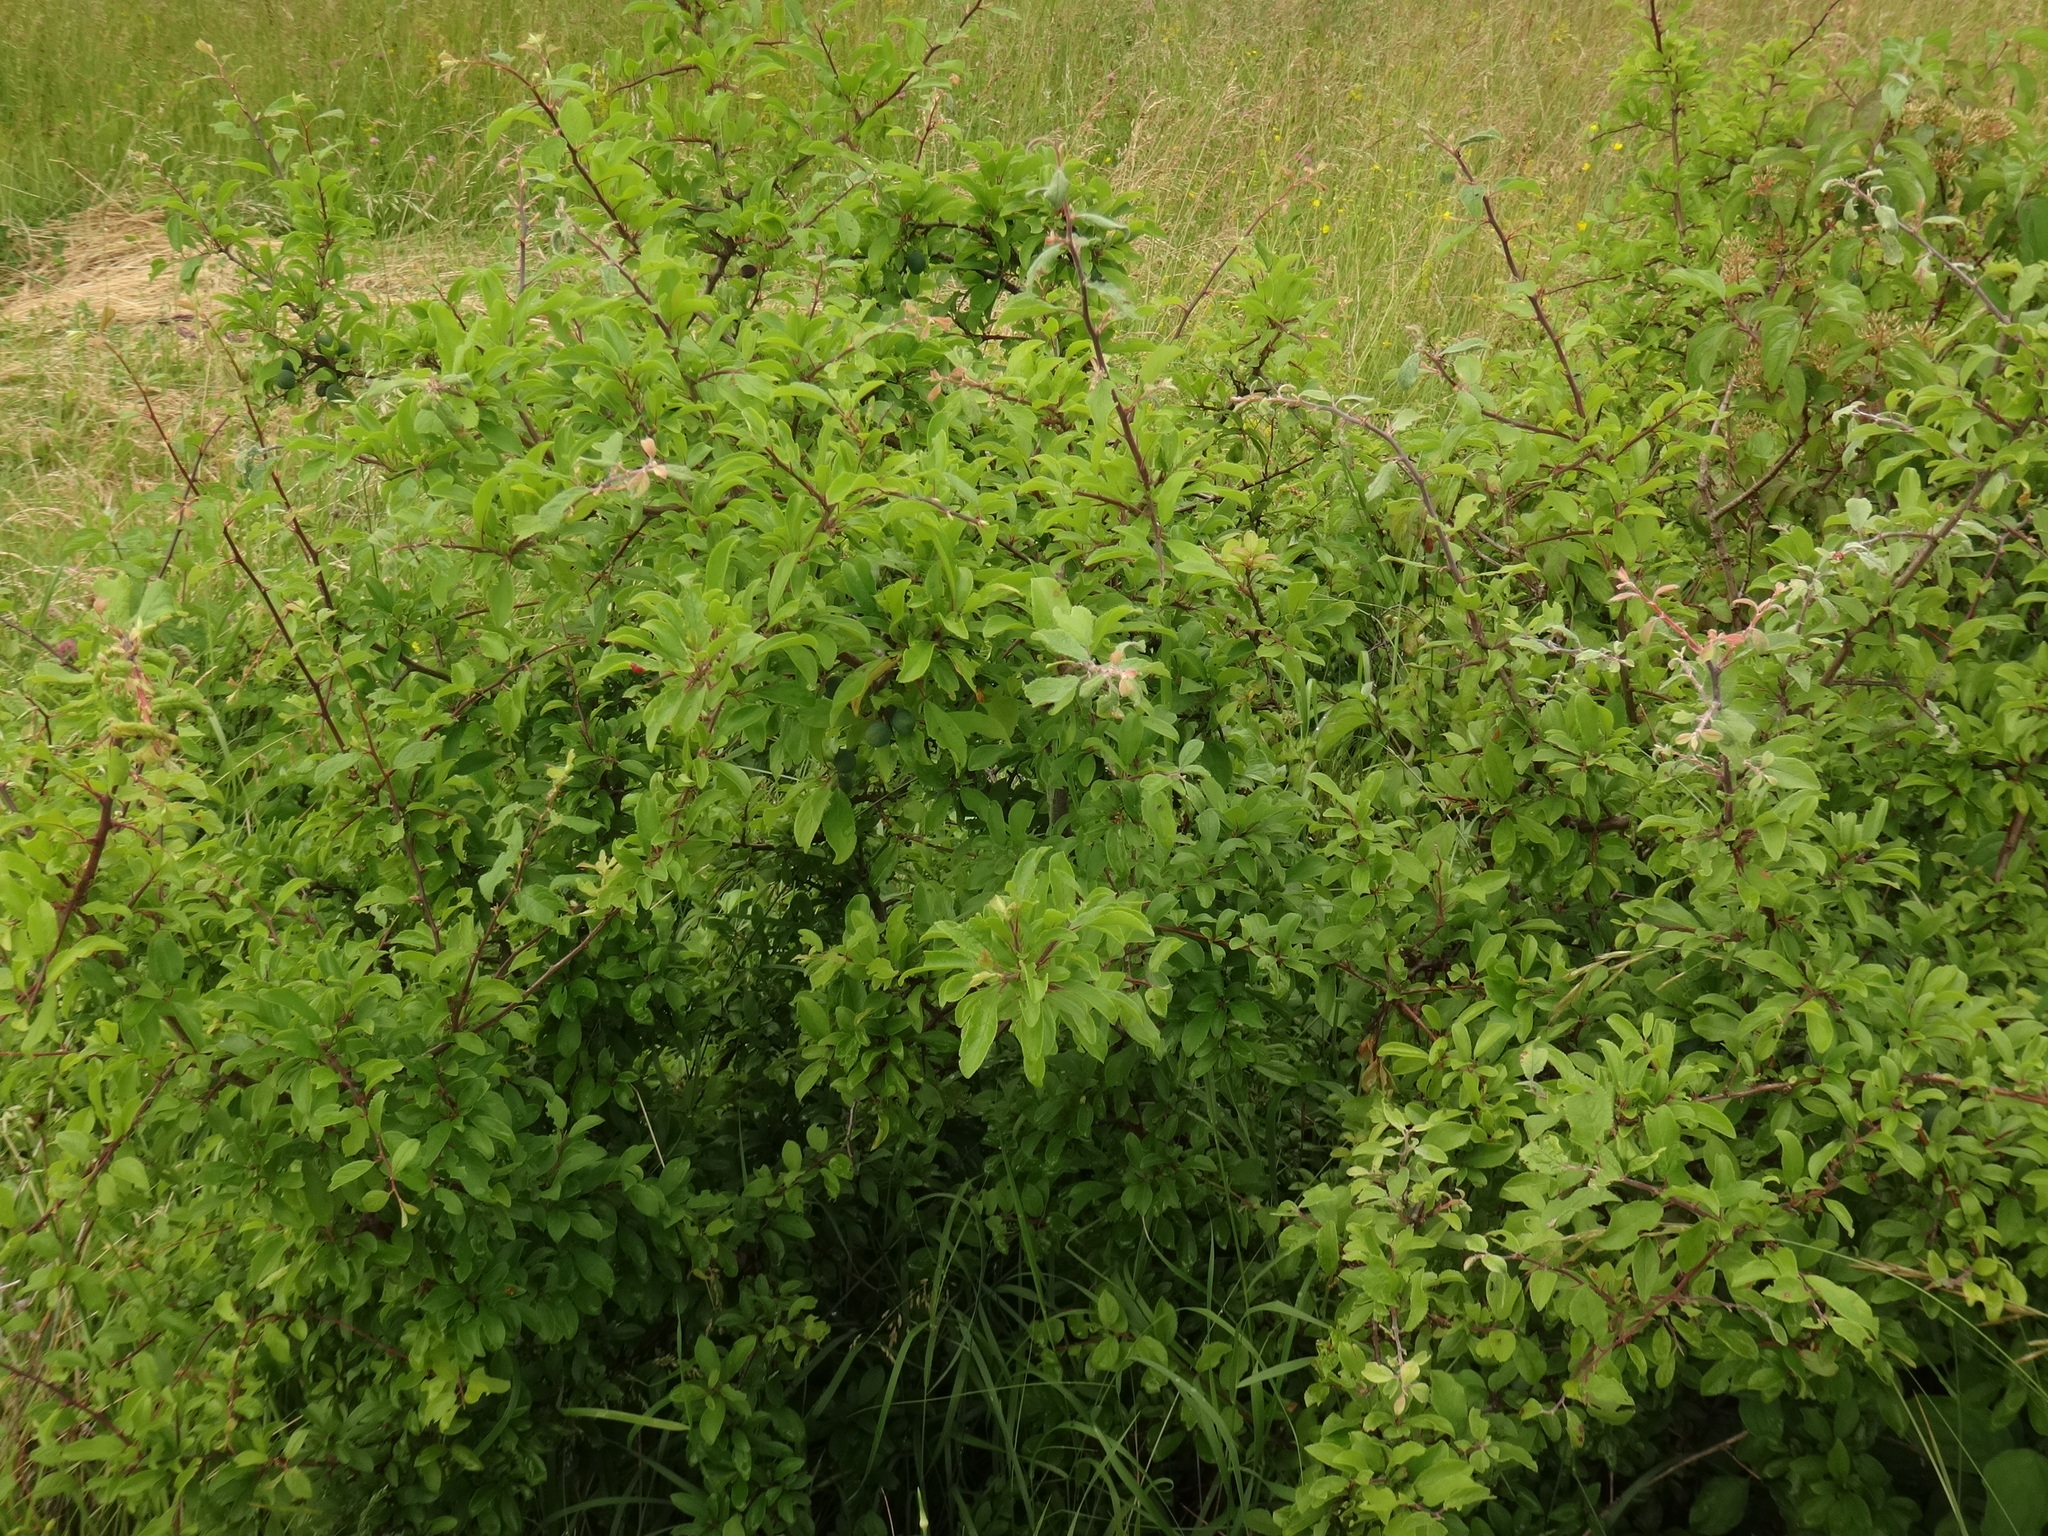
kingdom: Plantae
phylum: Tracheophyta
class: Magnoliopsida
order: Rosales
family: Rosaceae
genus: Prunus
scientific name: Prunus spinosa
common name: Blackthorn
